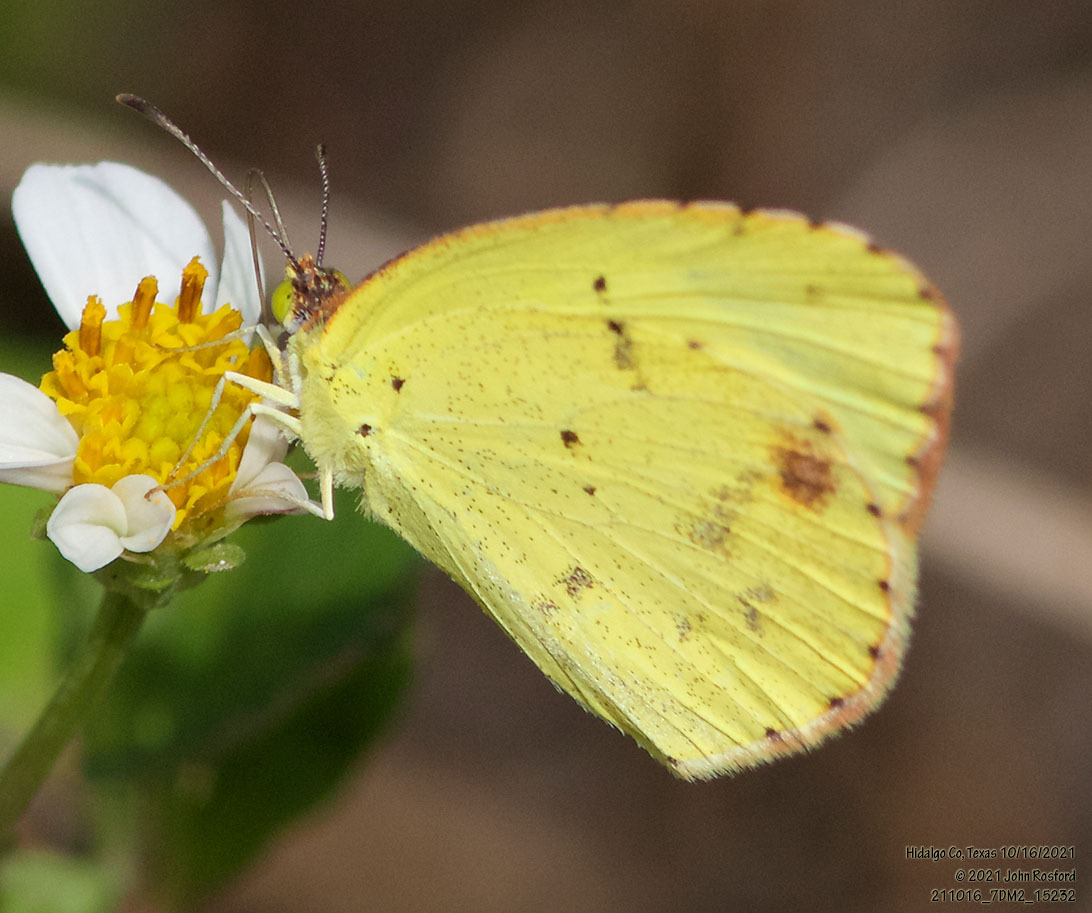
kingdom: Animalia
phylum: Arthropoda
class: Insecta
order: Lepidoptera
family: Pieridae
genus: Pyrisitia
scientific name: Pyrisitia lisa
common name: Little yellow
